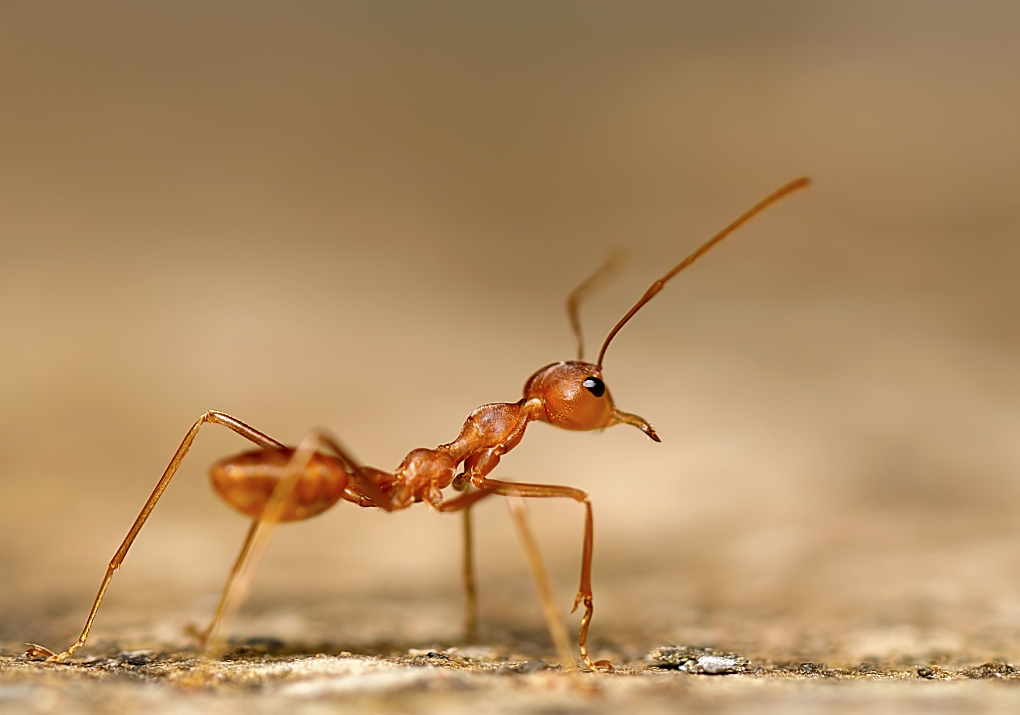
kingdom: Animalia
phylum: Arthropoda
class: Insecta
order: Hymenoptera
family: Formicidae
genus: Oecophylla
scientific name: Oecophylla smaragdina
